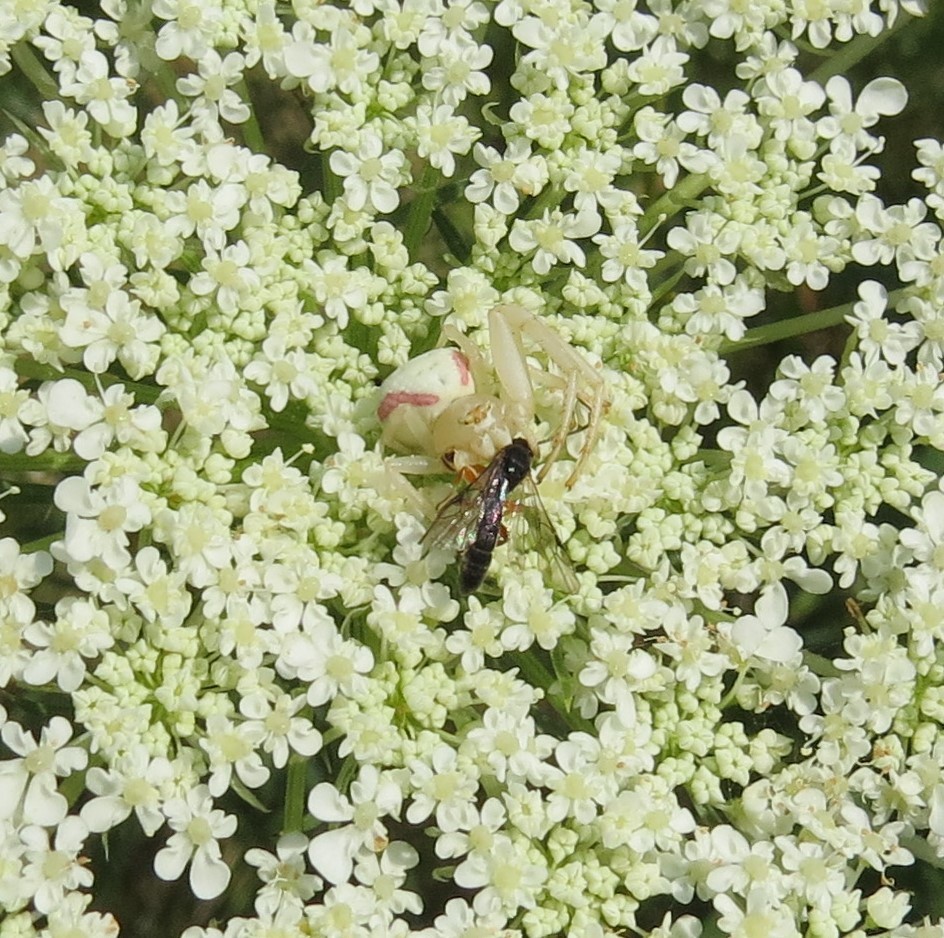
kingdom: Animalia
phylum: Arthropoda
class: Arachnida
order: Araneae
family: Thomisidae
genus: Misumena
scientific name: Misumena vatia
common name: Goldenrod crab spider
